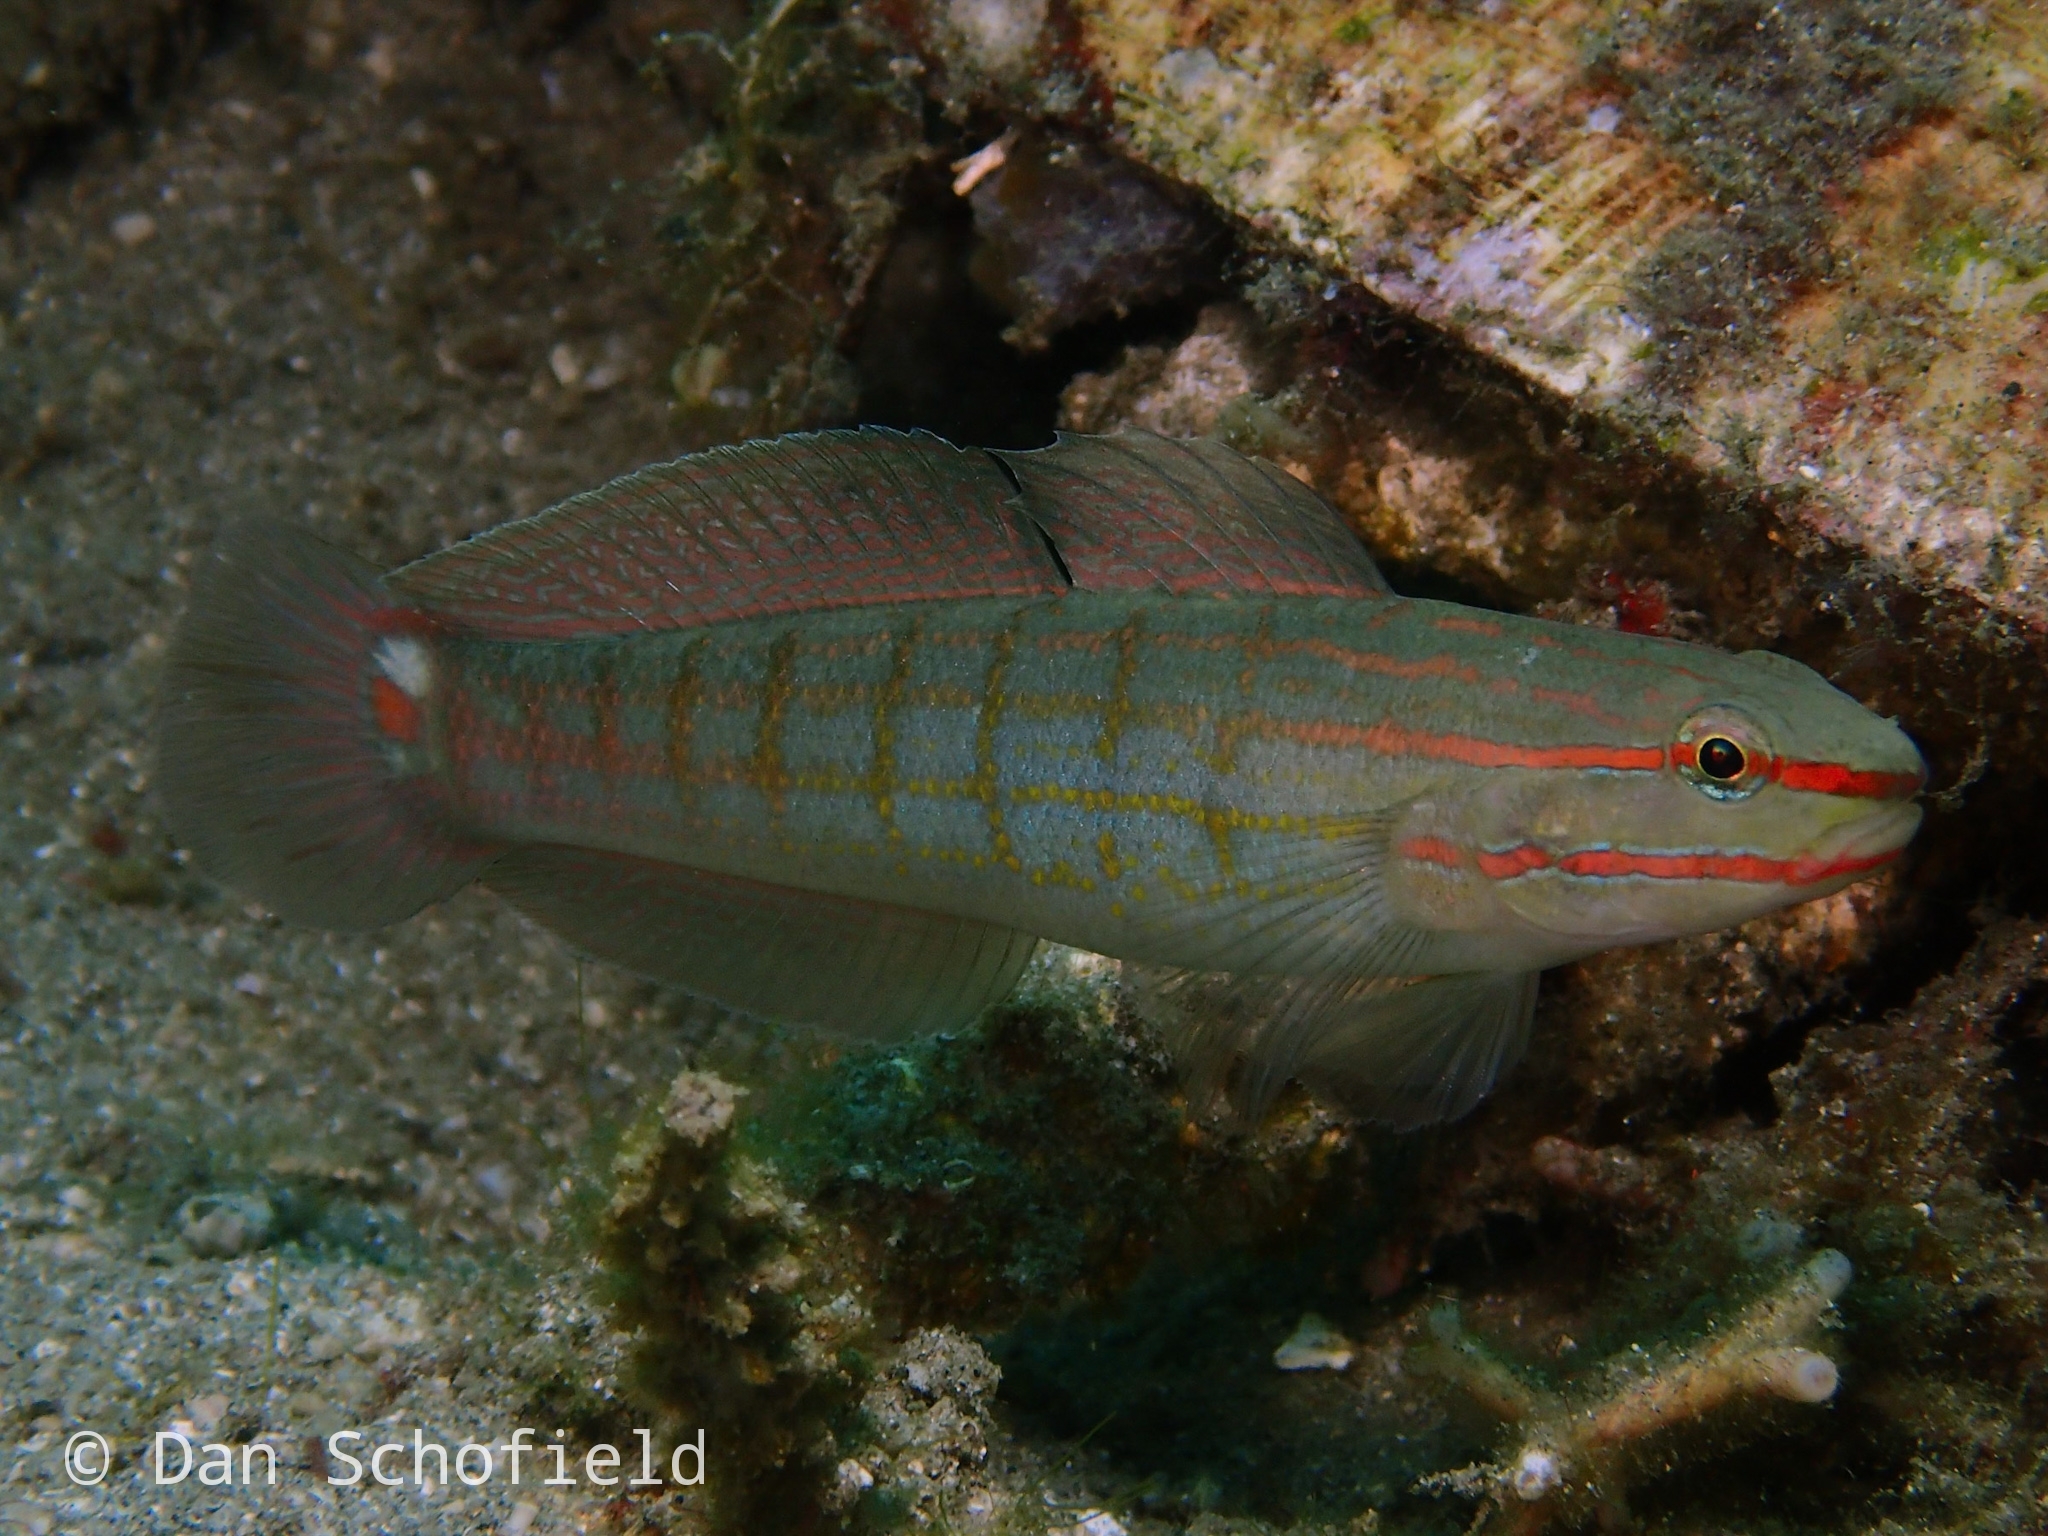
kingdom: Animalia
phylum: Chordata
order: Perciformes
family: Gobiidae
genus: Amblygobius
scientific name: Amblygobius decussatus
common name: Crosshatch goby
